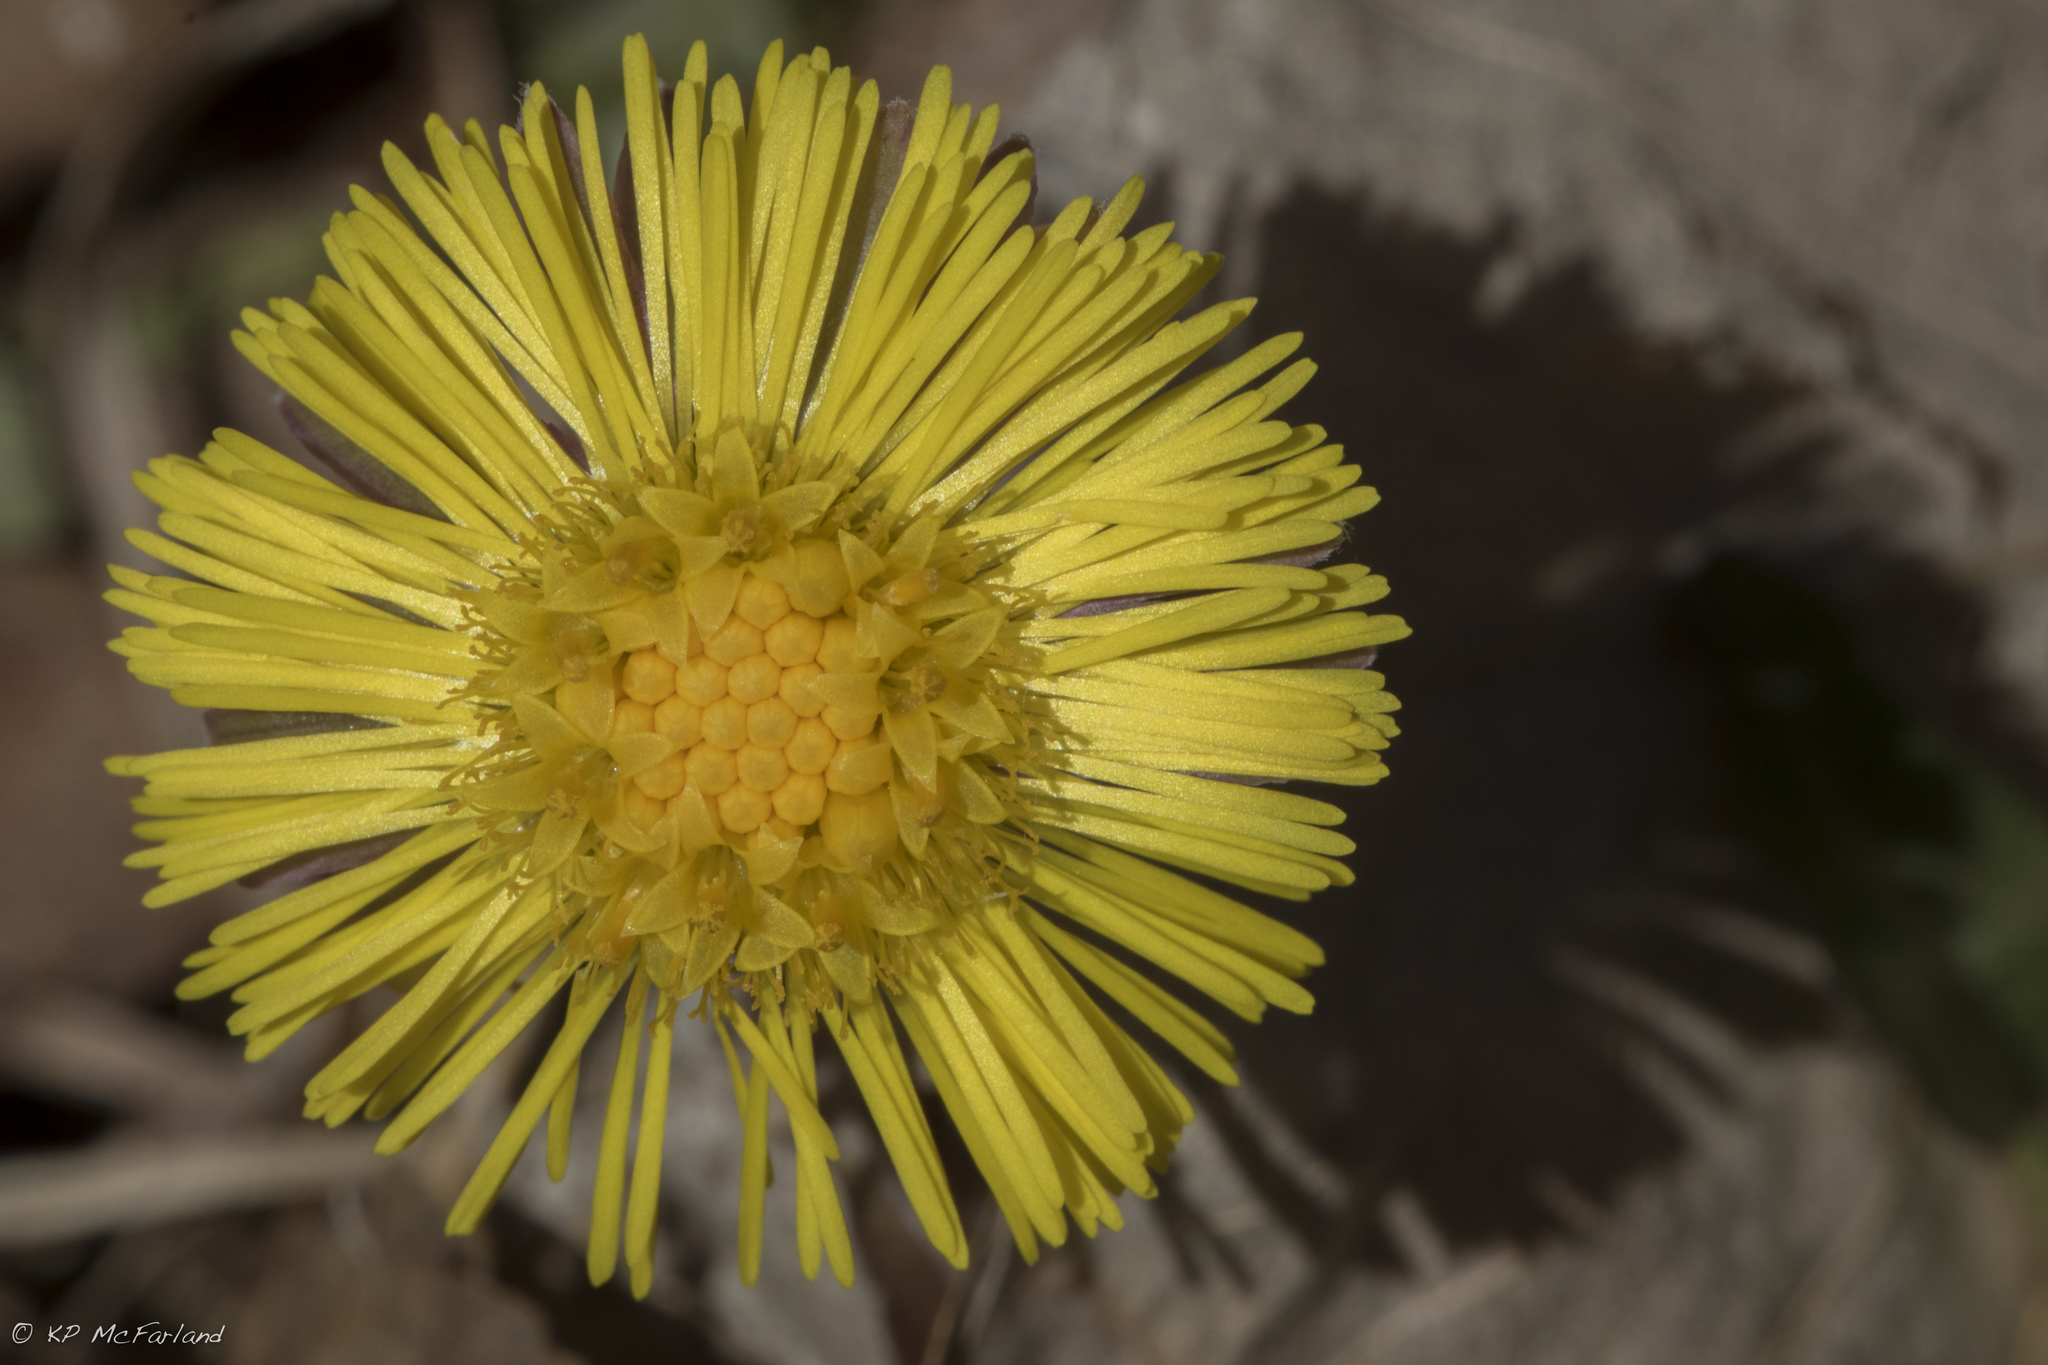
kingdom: Plantae
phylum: Tracheophyta
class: Magnoliopsida
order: Asterales
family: Asteraceae
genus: Tussilago
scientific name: Tussilago farfara
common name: Coltsfoot
